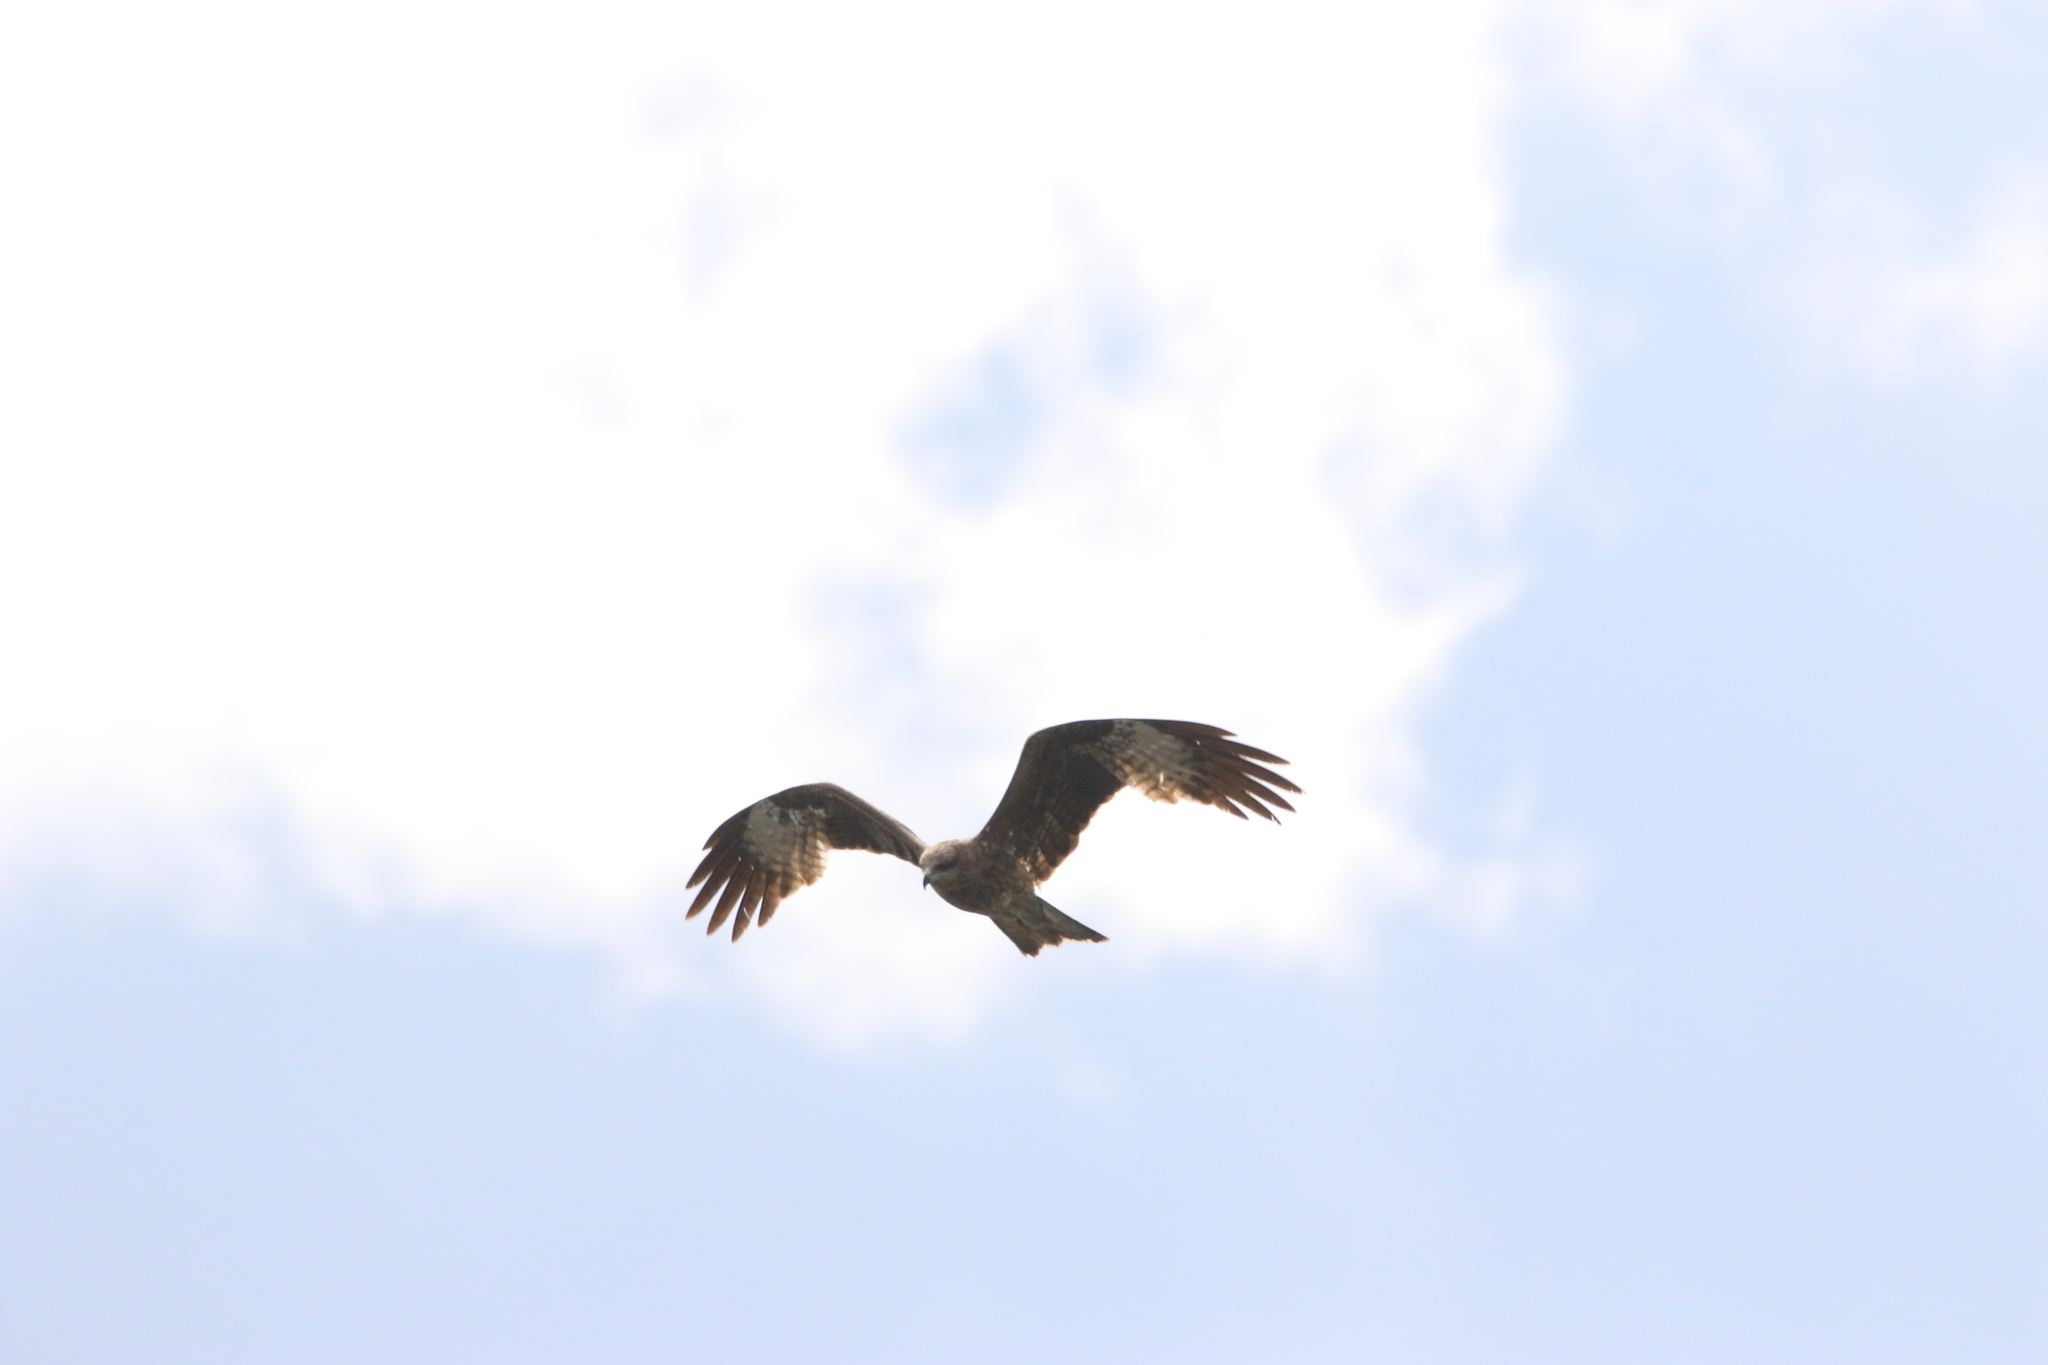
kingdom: Animalia
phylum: Chordata
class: Aves
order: Accipitriformes
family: Accipitridae
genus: Milvus
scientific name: Milvus migrans
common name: Black kite
